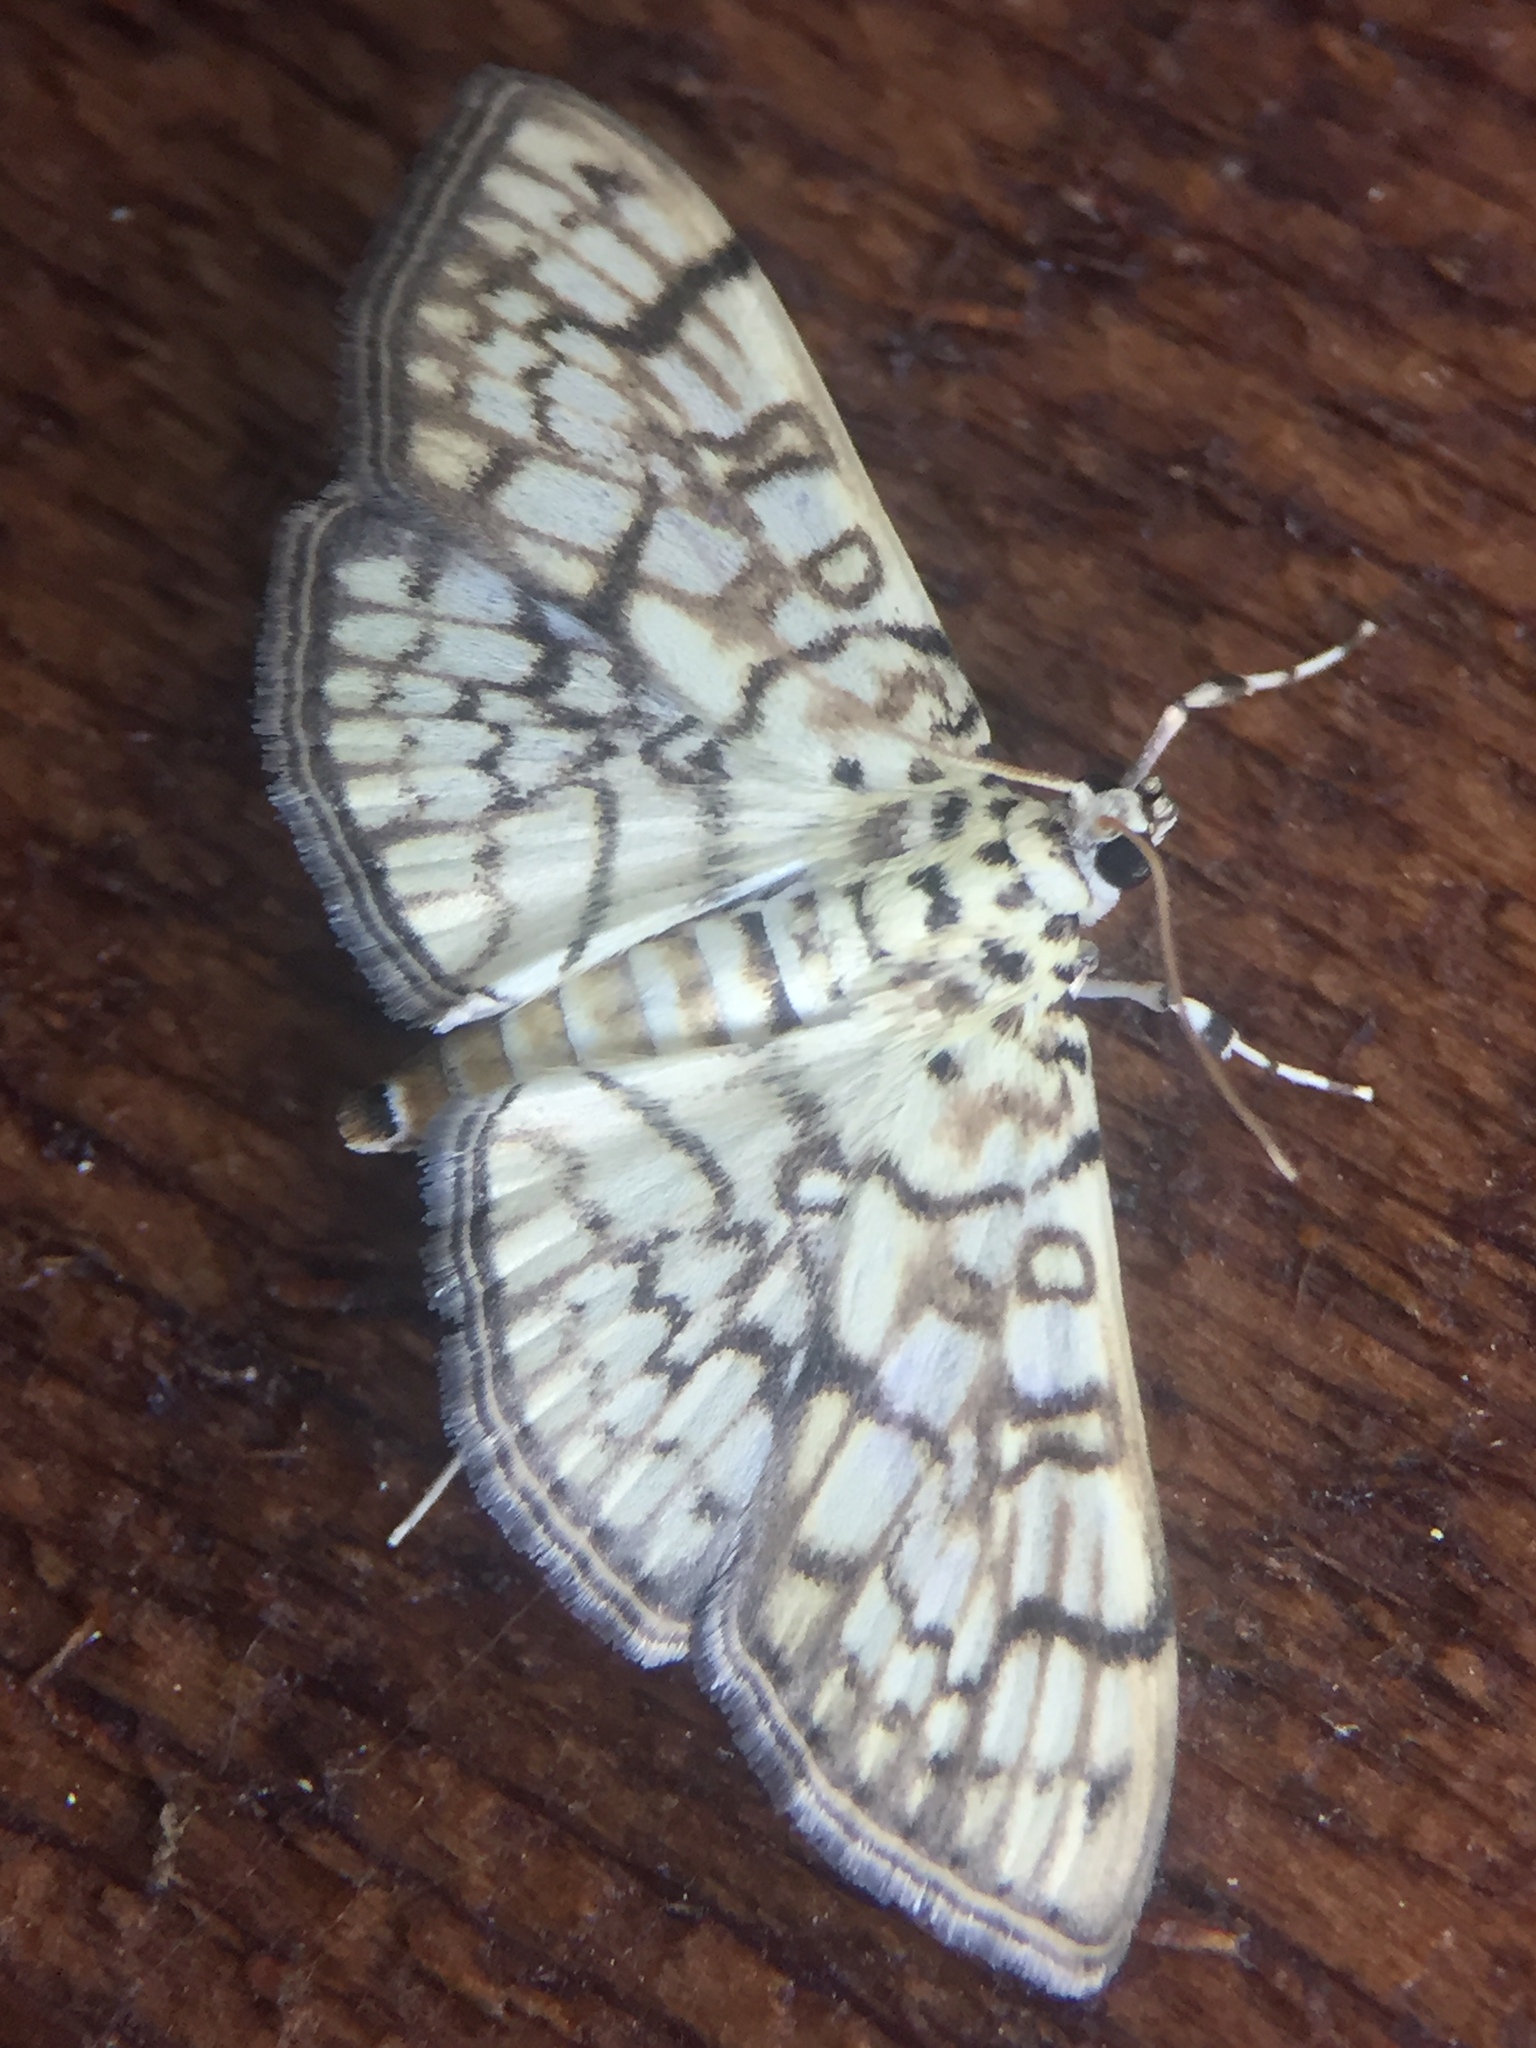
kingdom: Animalia
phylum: Arthropoda
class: Insecta
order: Lepidoptera
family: Crambidae
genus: Haritalodes
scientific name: Haritalodes derogata
